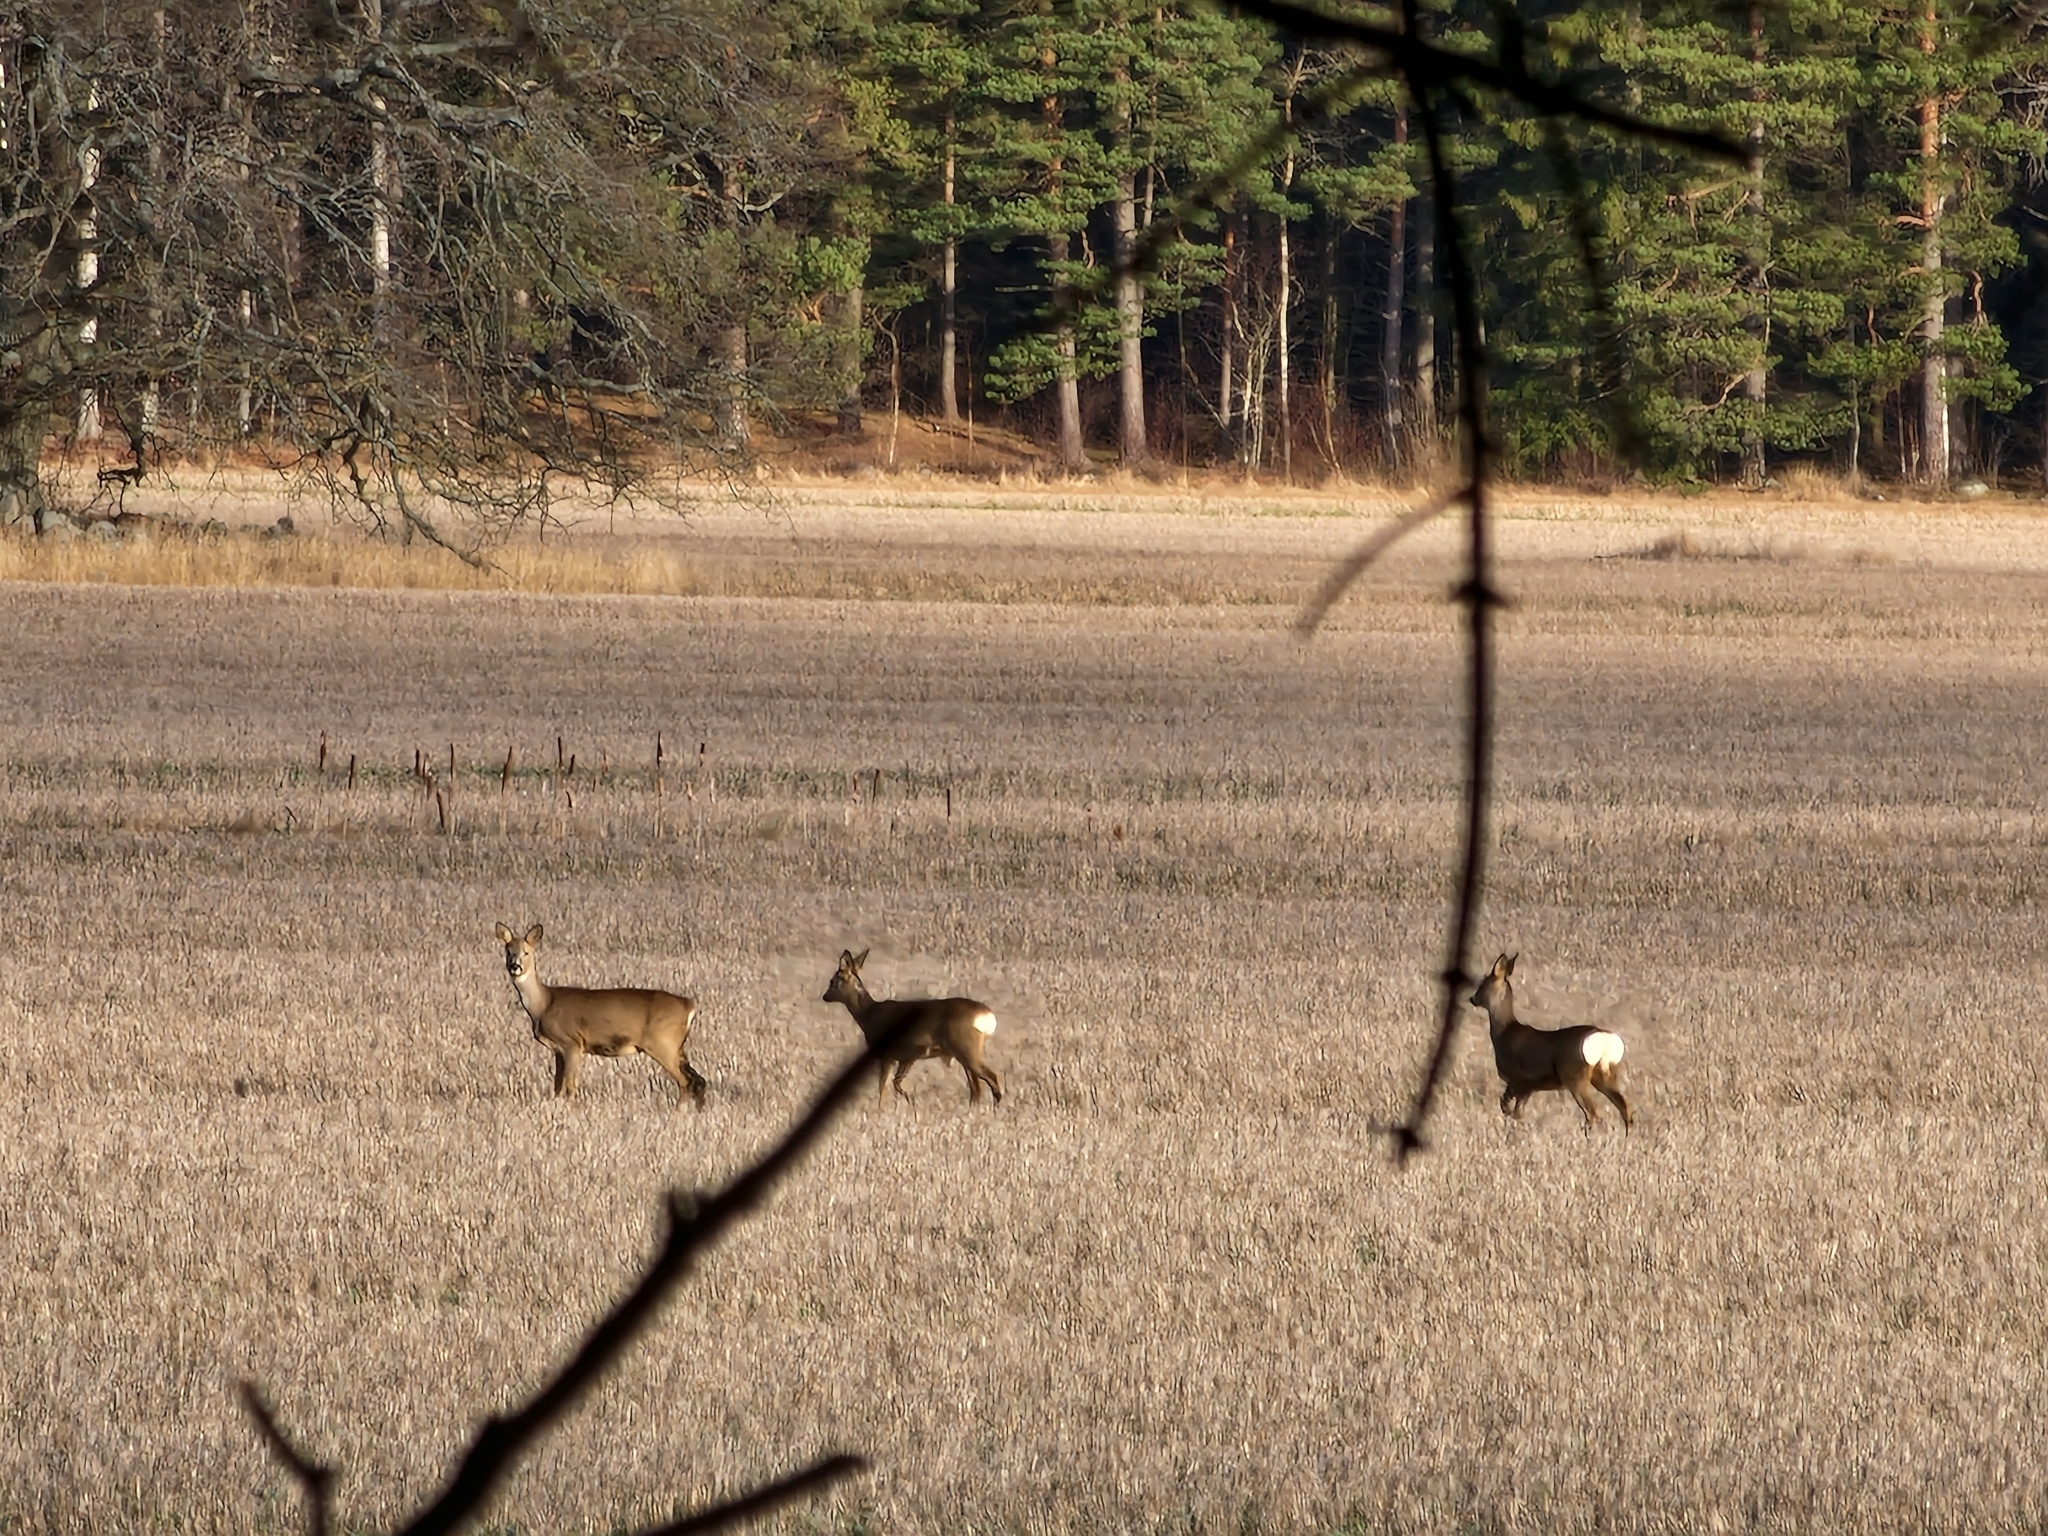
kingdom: Animalia
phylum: Chordata
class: Mammalia
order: Artiodactyla
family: Cervidae
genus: Capreolus
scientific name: Capreolus capreolus
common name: Western roe deer
